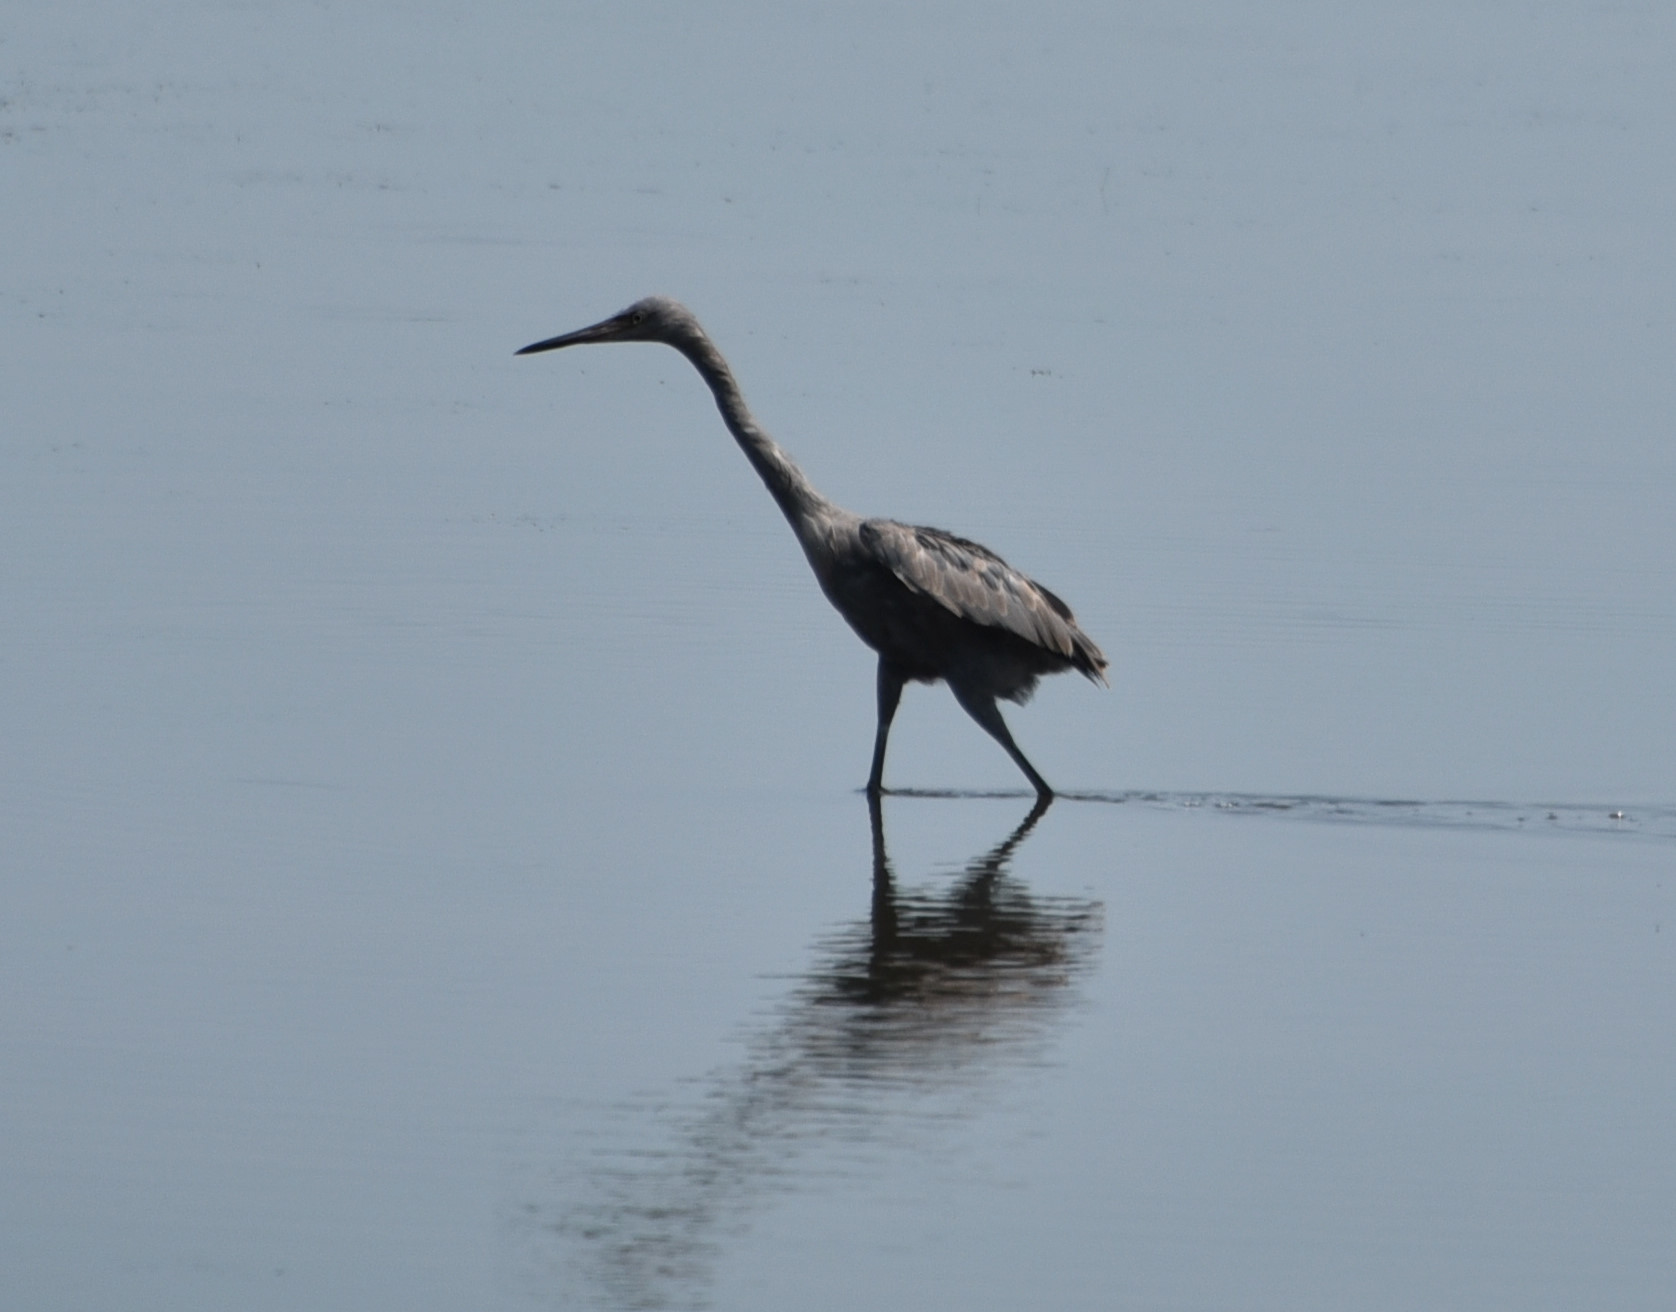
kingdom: Animalia
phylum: Chordata
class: Aves
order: Pelecaniformes
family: Ardeidae
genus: Egretta
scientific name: Egretta rufescens
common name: Reddish egret
